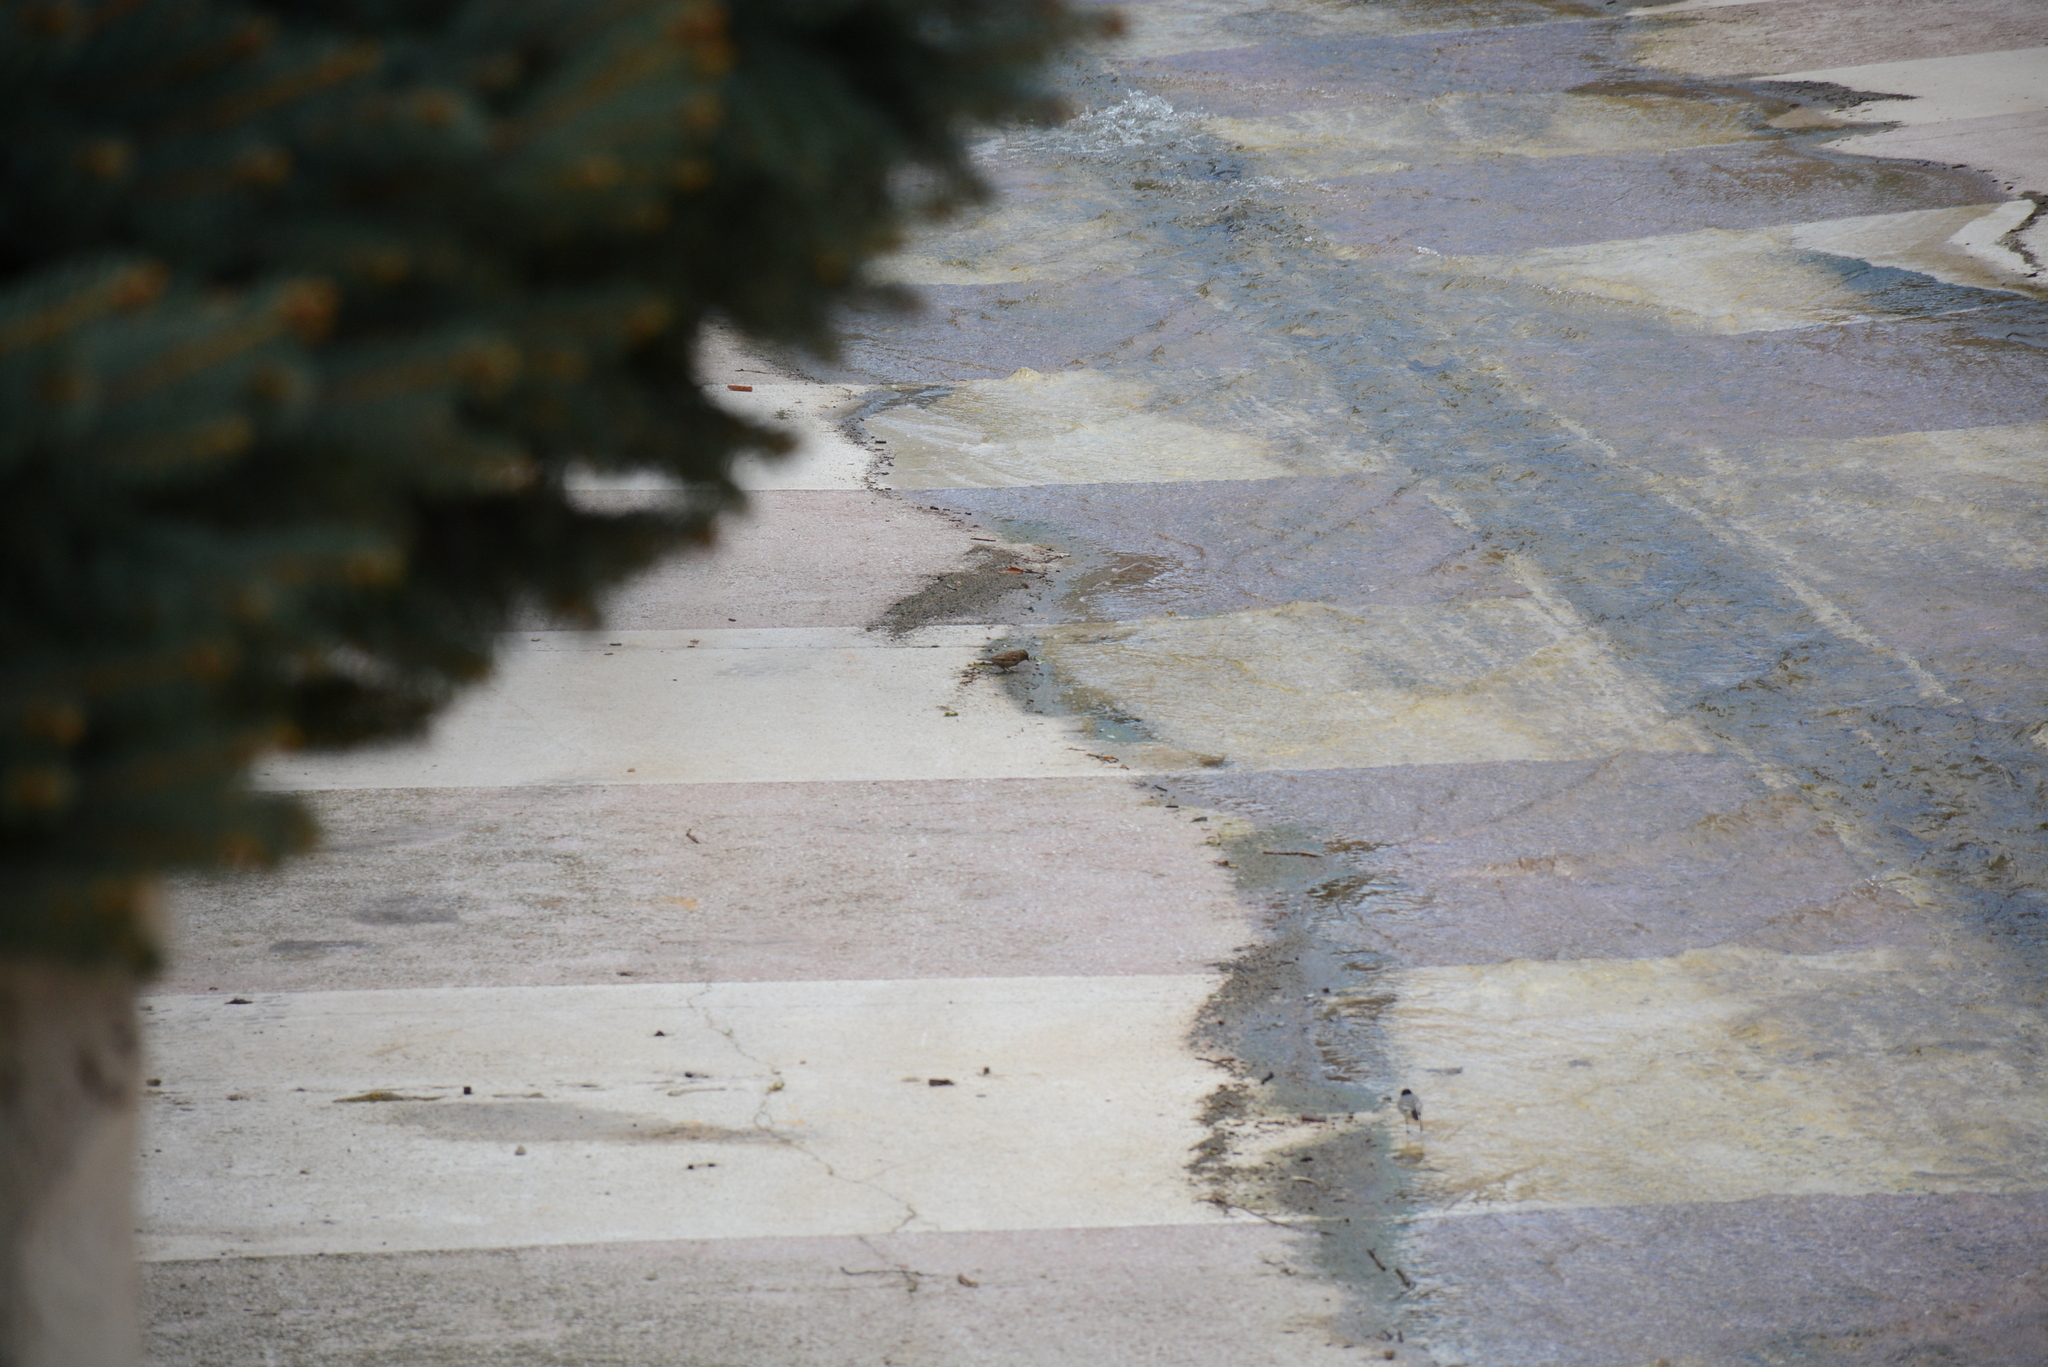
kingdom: Animalia
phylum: Chordata
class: Aves
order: Passeriformes
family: Passeridae
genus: Passer
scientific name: Passer domesticus
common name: House sparrow
